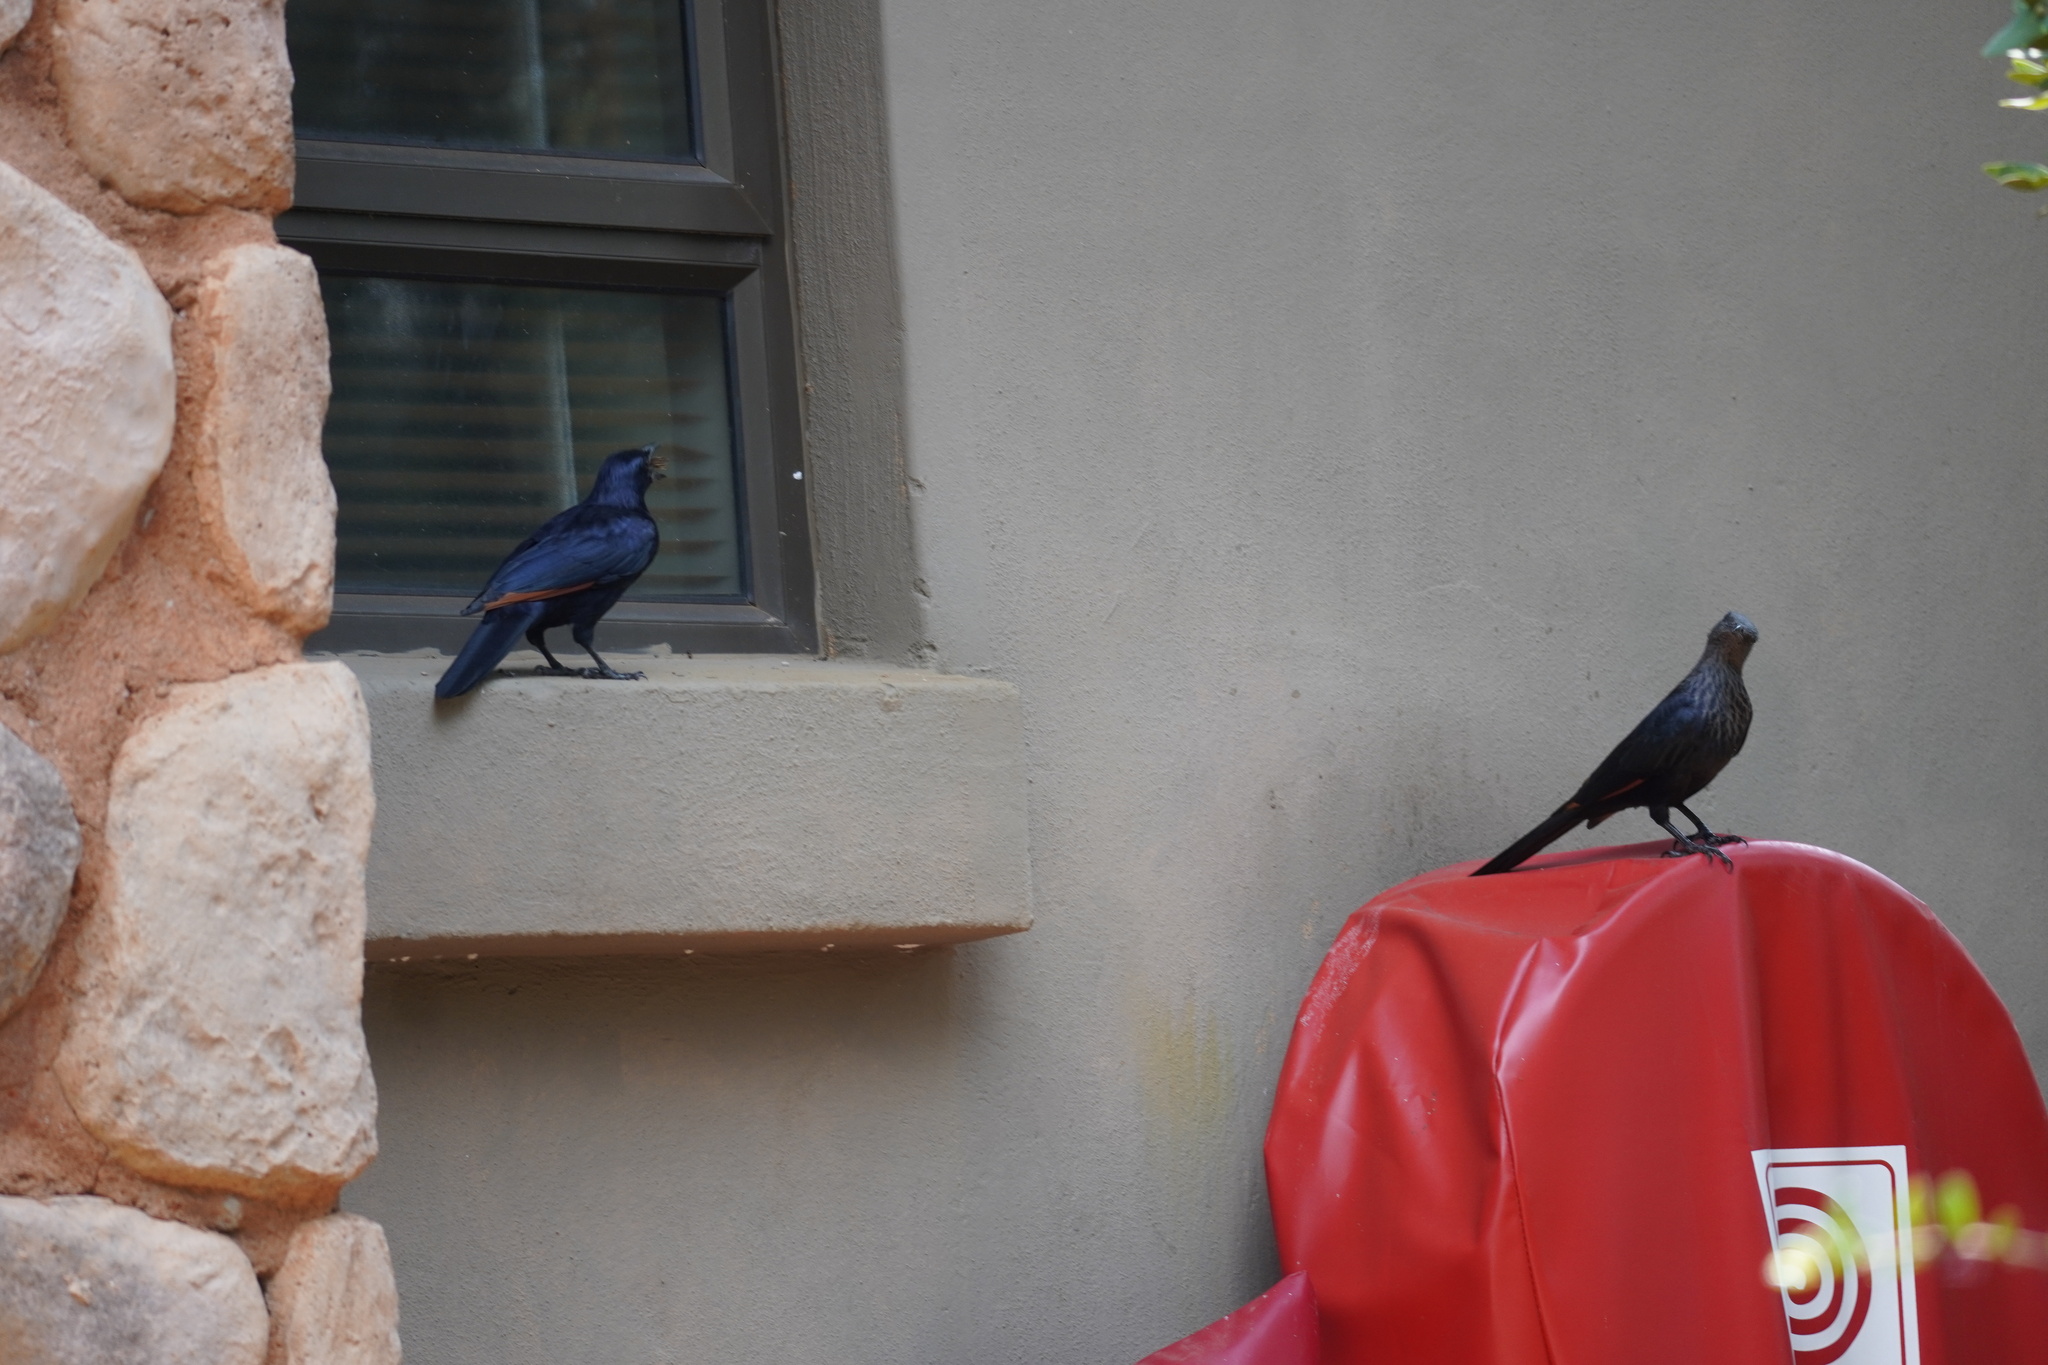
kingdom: Animalia
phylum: Chordata
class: Aves
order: Passeriformes
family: Sturnidae
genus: Onychognathus
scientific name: Onychognathus morio
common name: Red-winged starling
